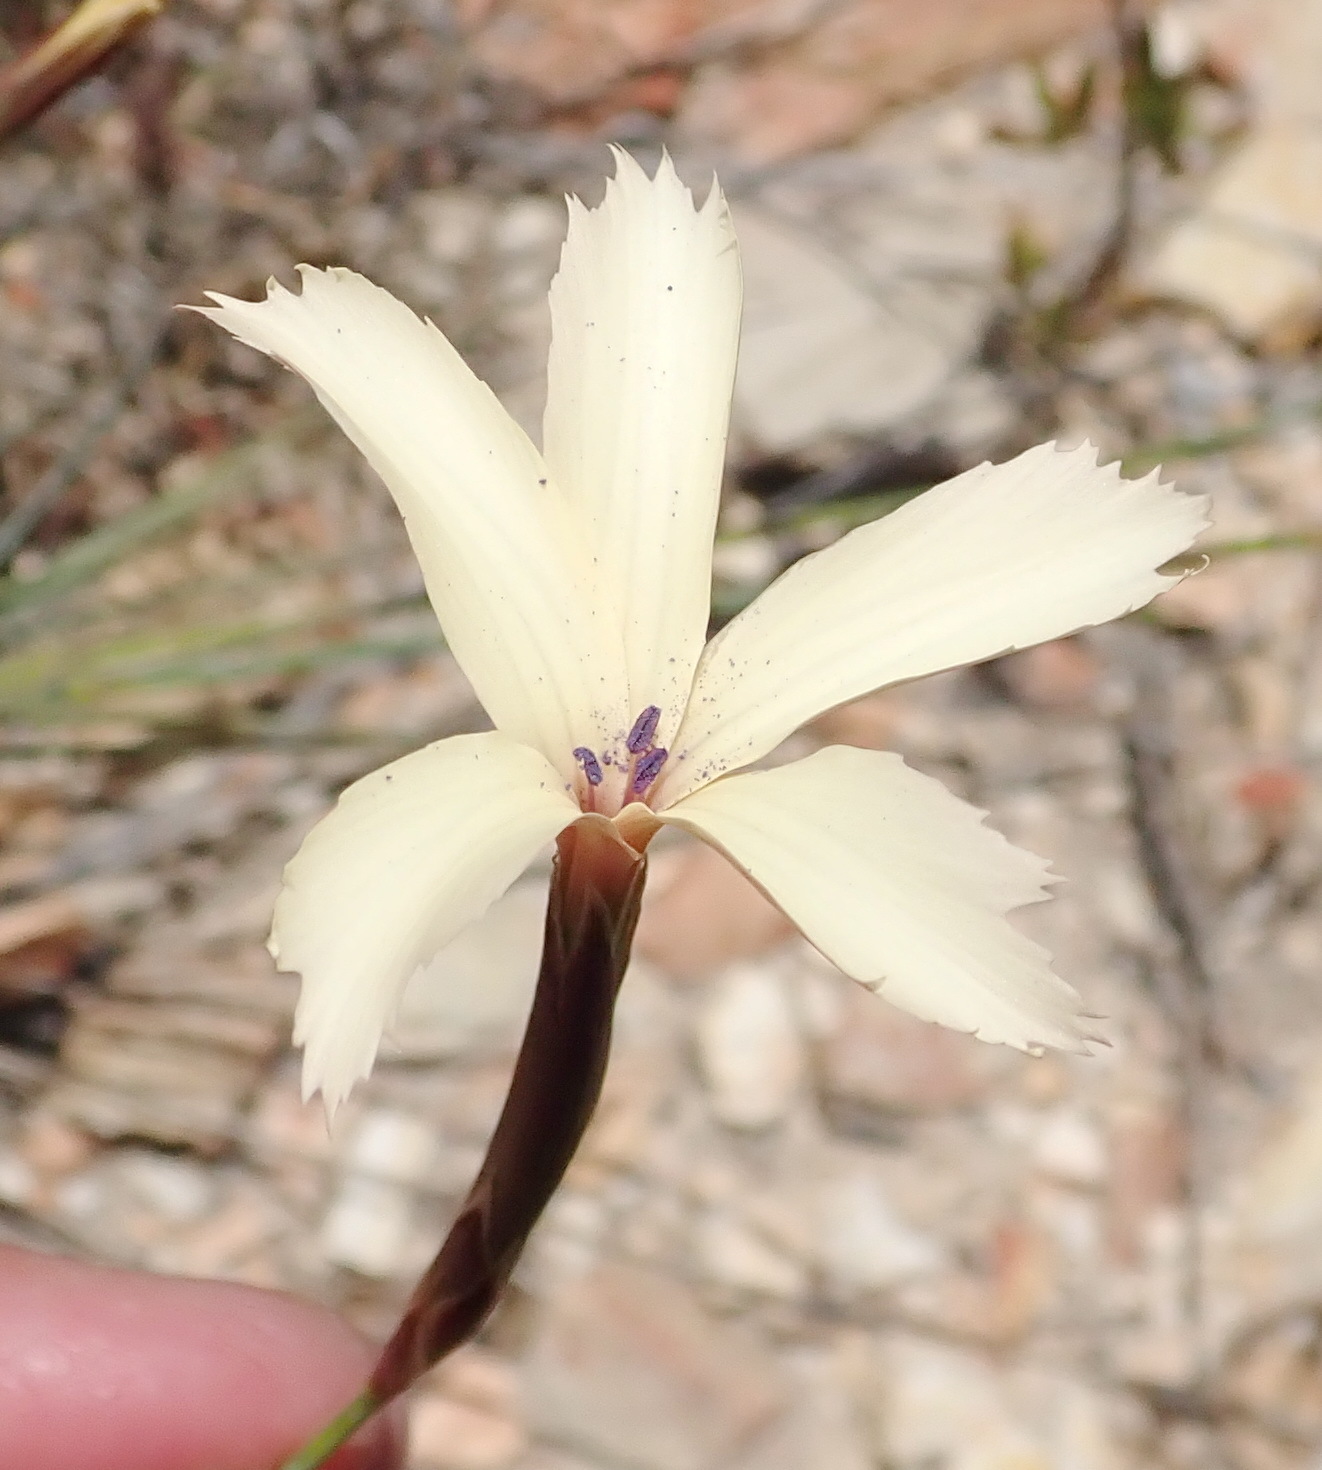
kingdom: Plantae
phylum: Tracheophyta
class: Magnoliopsida
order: Caryophyllales
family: Caryophyllaceae
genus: Dianthus
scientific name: Dianthus caespitosus
